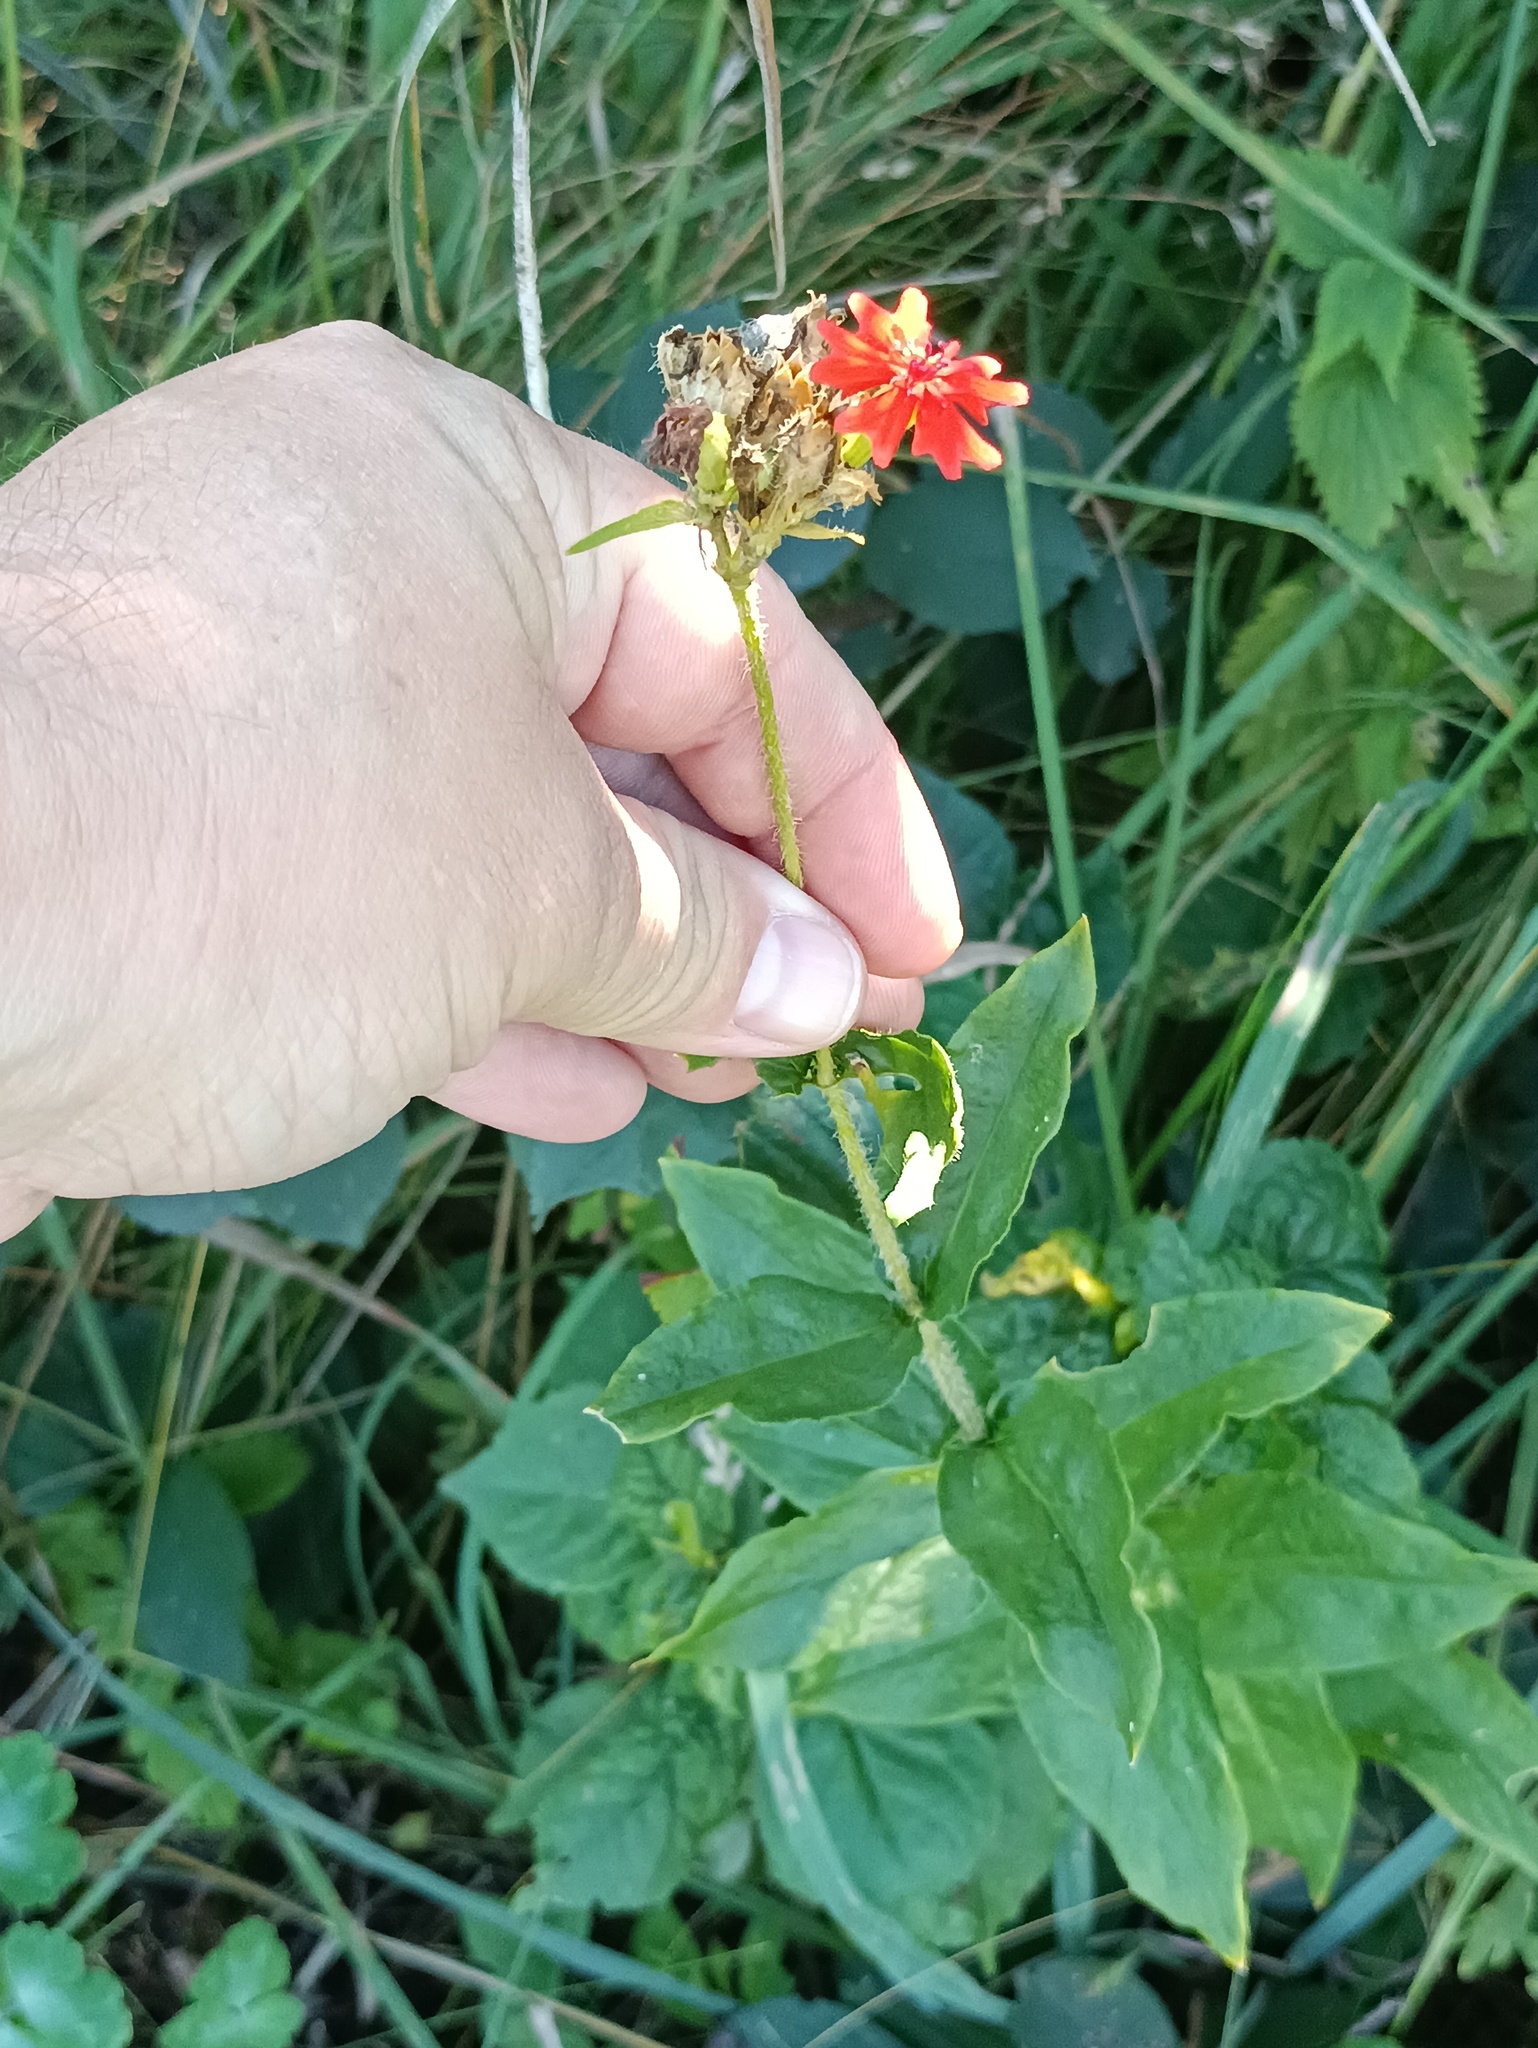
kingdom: Plantae
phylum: Tracheophyta
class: Magnoliopsida
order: Caryophyllales
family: Caryophyllaceae
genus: Silene
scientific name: Silene chalcedonica
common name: Maltese-cross
